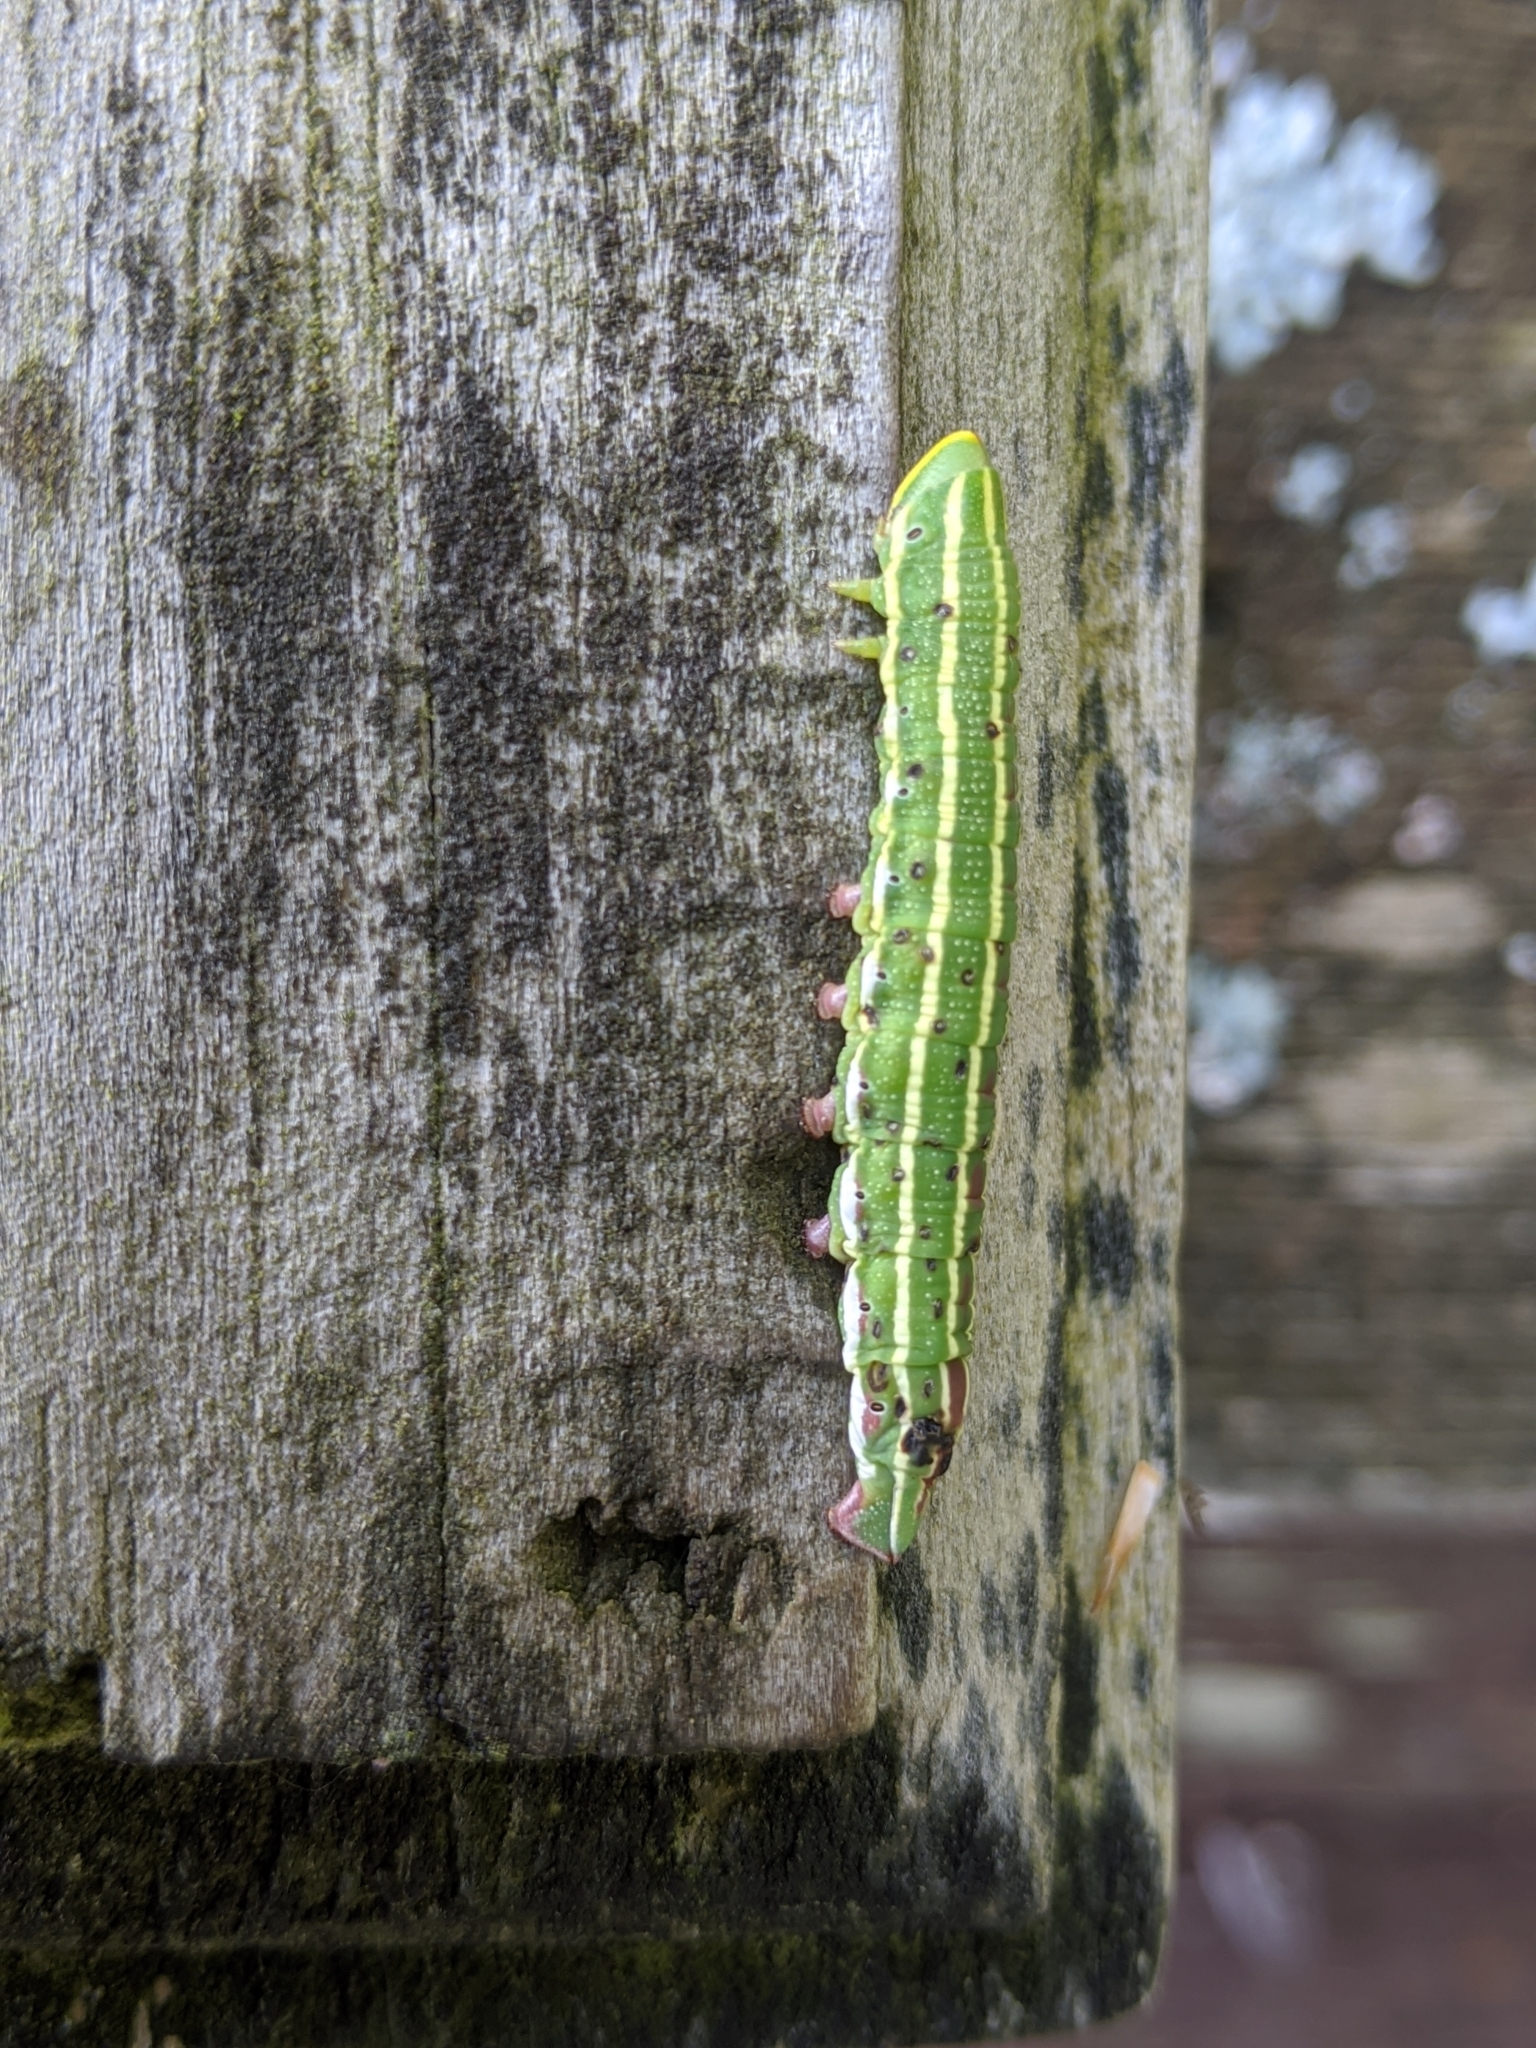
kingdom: Animalia
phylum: Arthropoda
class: Insecta
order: Lepidoptera
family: Sphingidae
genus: Lapara
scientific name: Lapara bombycoides
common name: Northern pine sphinx
